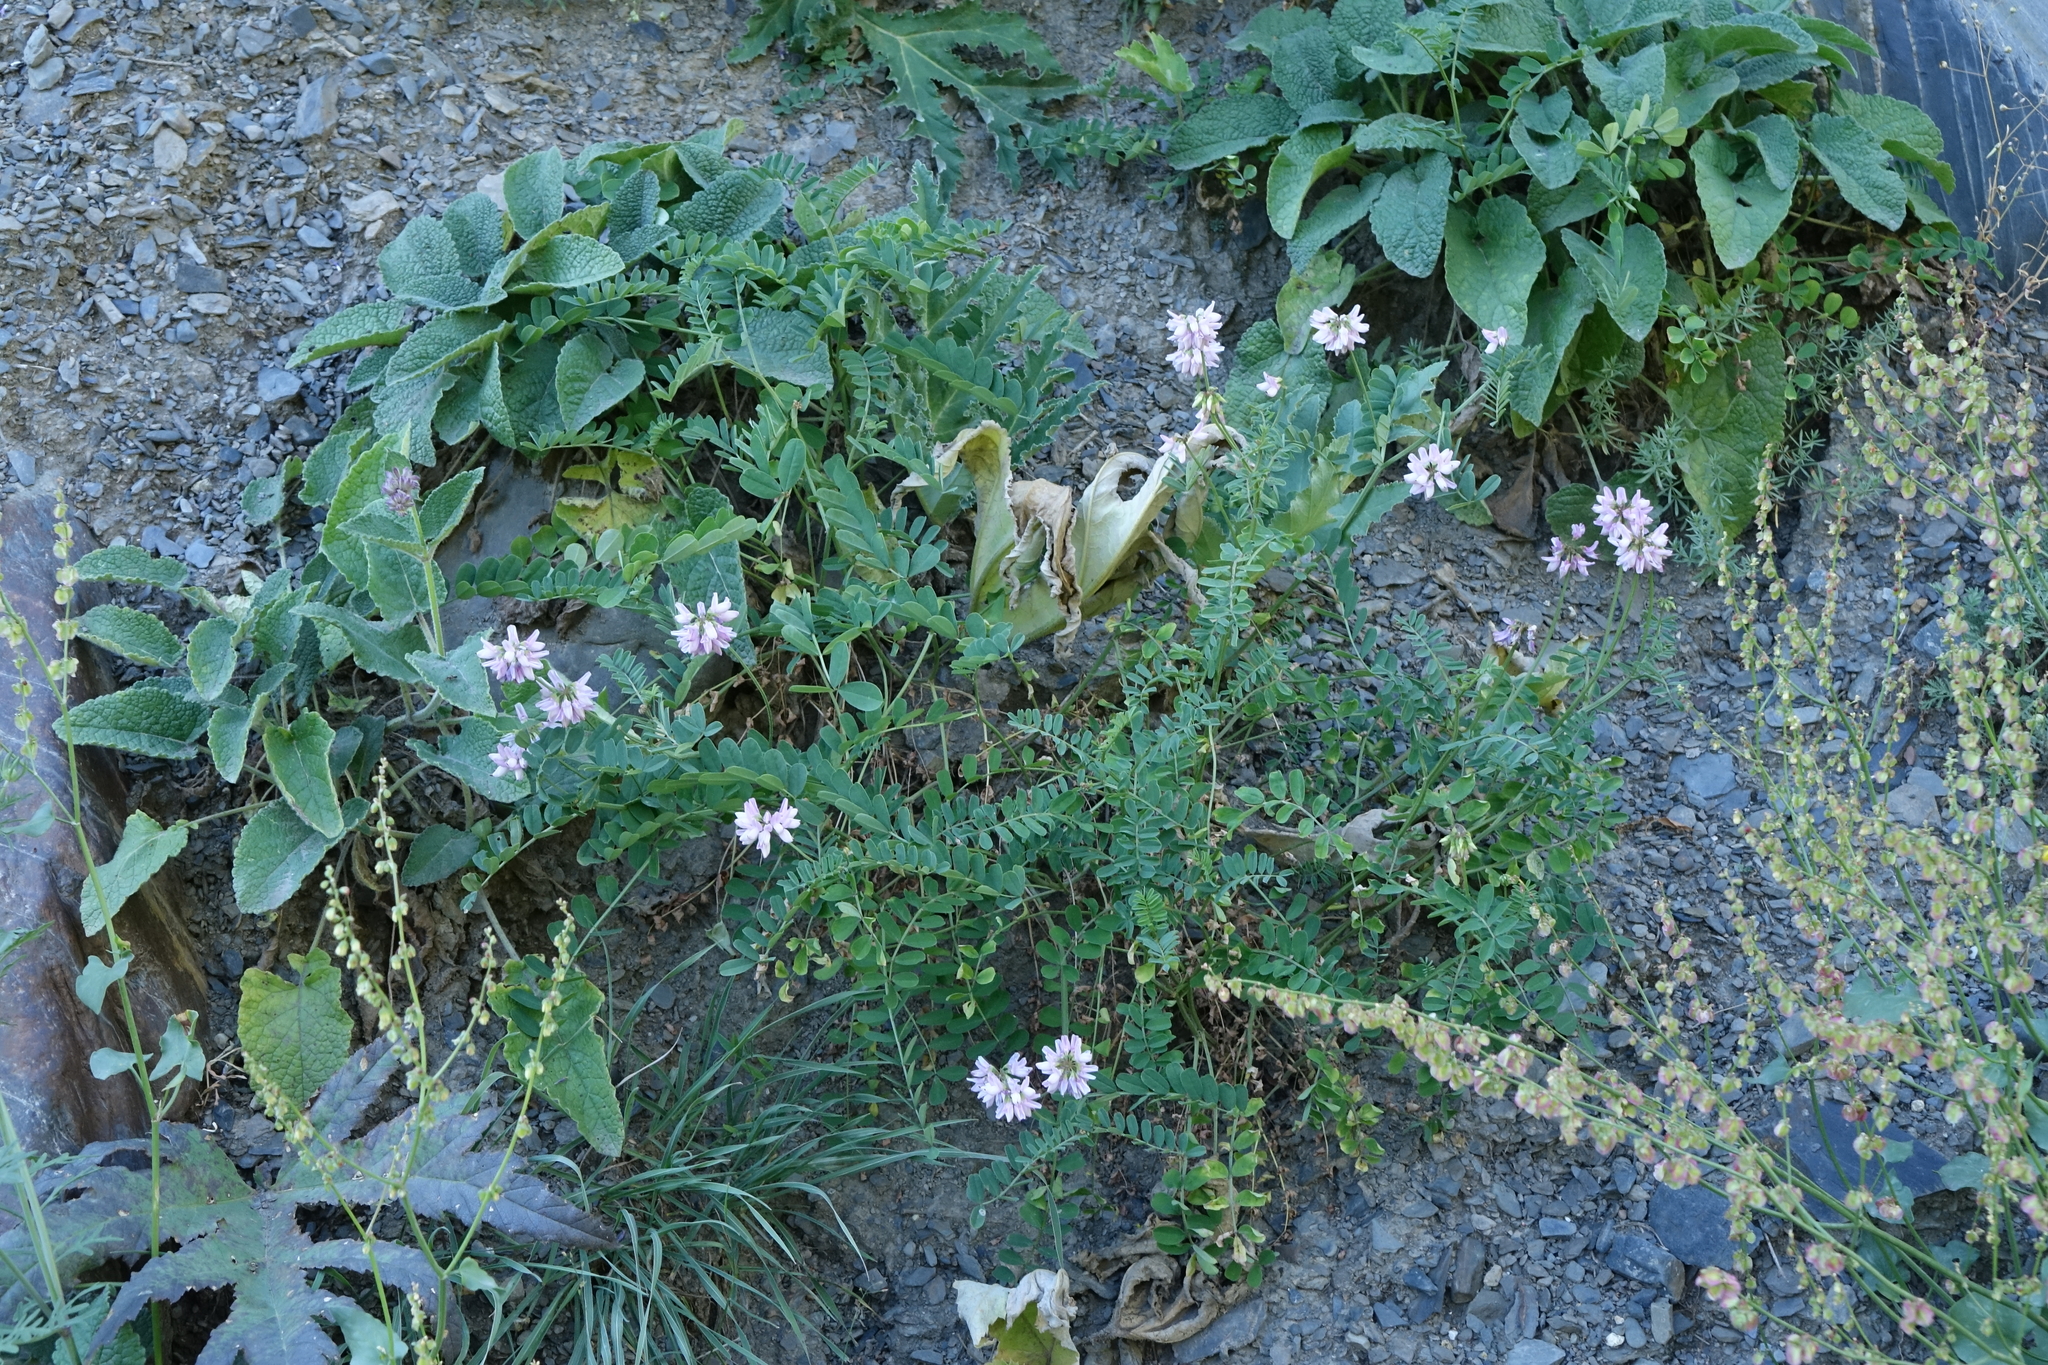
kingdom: Plantae
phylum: Tracheophyta
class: Magnoliopsida
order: Fabales
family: Fabaceae
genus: Coronilla
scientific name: Coronilla varia
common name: Crownvetch
